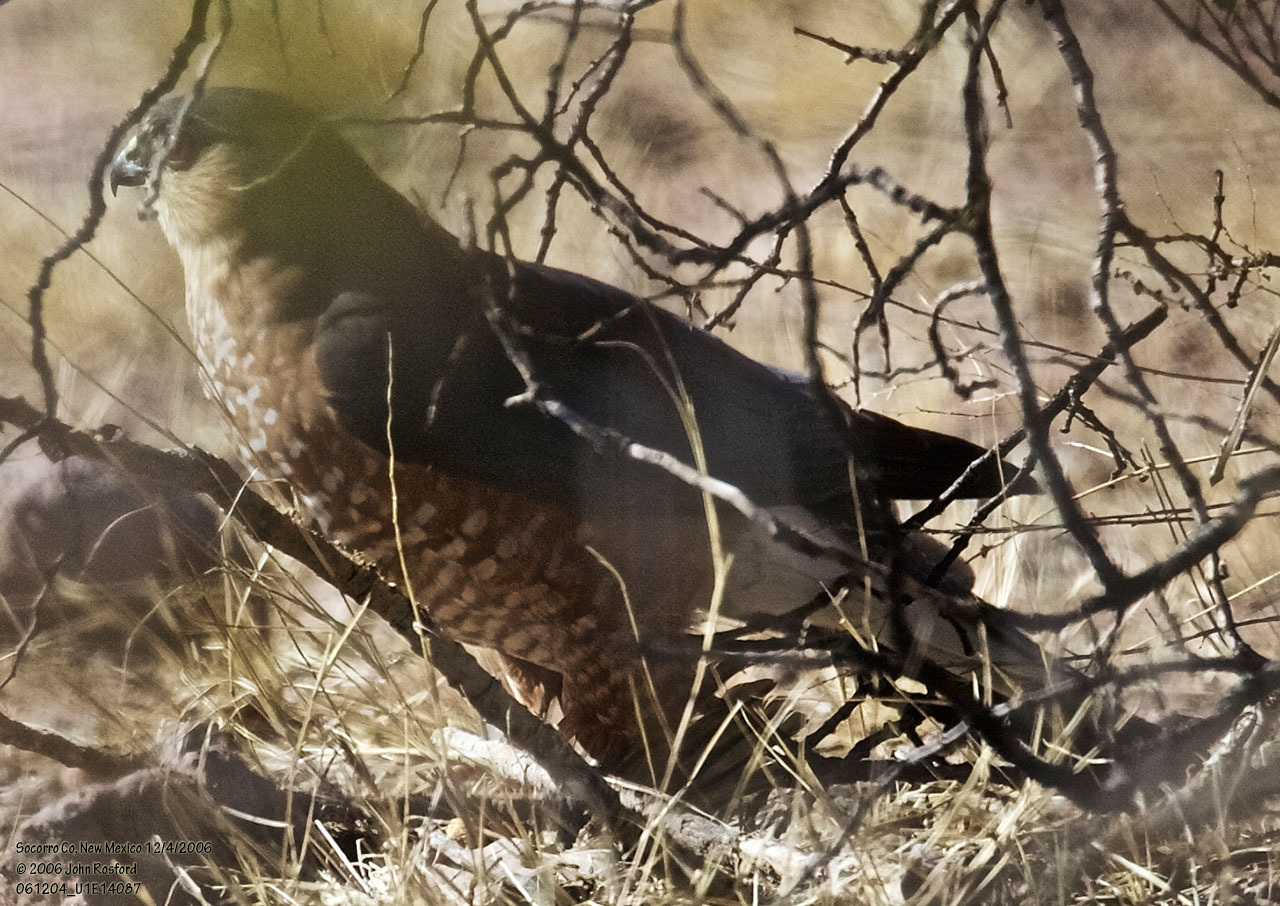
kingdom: Animalia
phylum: Chordata
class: Aves
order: Accipitriformes
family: Accipitridae
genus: Accipiter
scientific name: Accipiter striatus
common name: Sharp-shinned hawk
